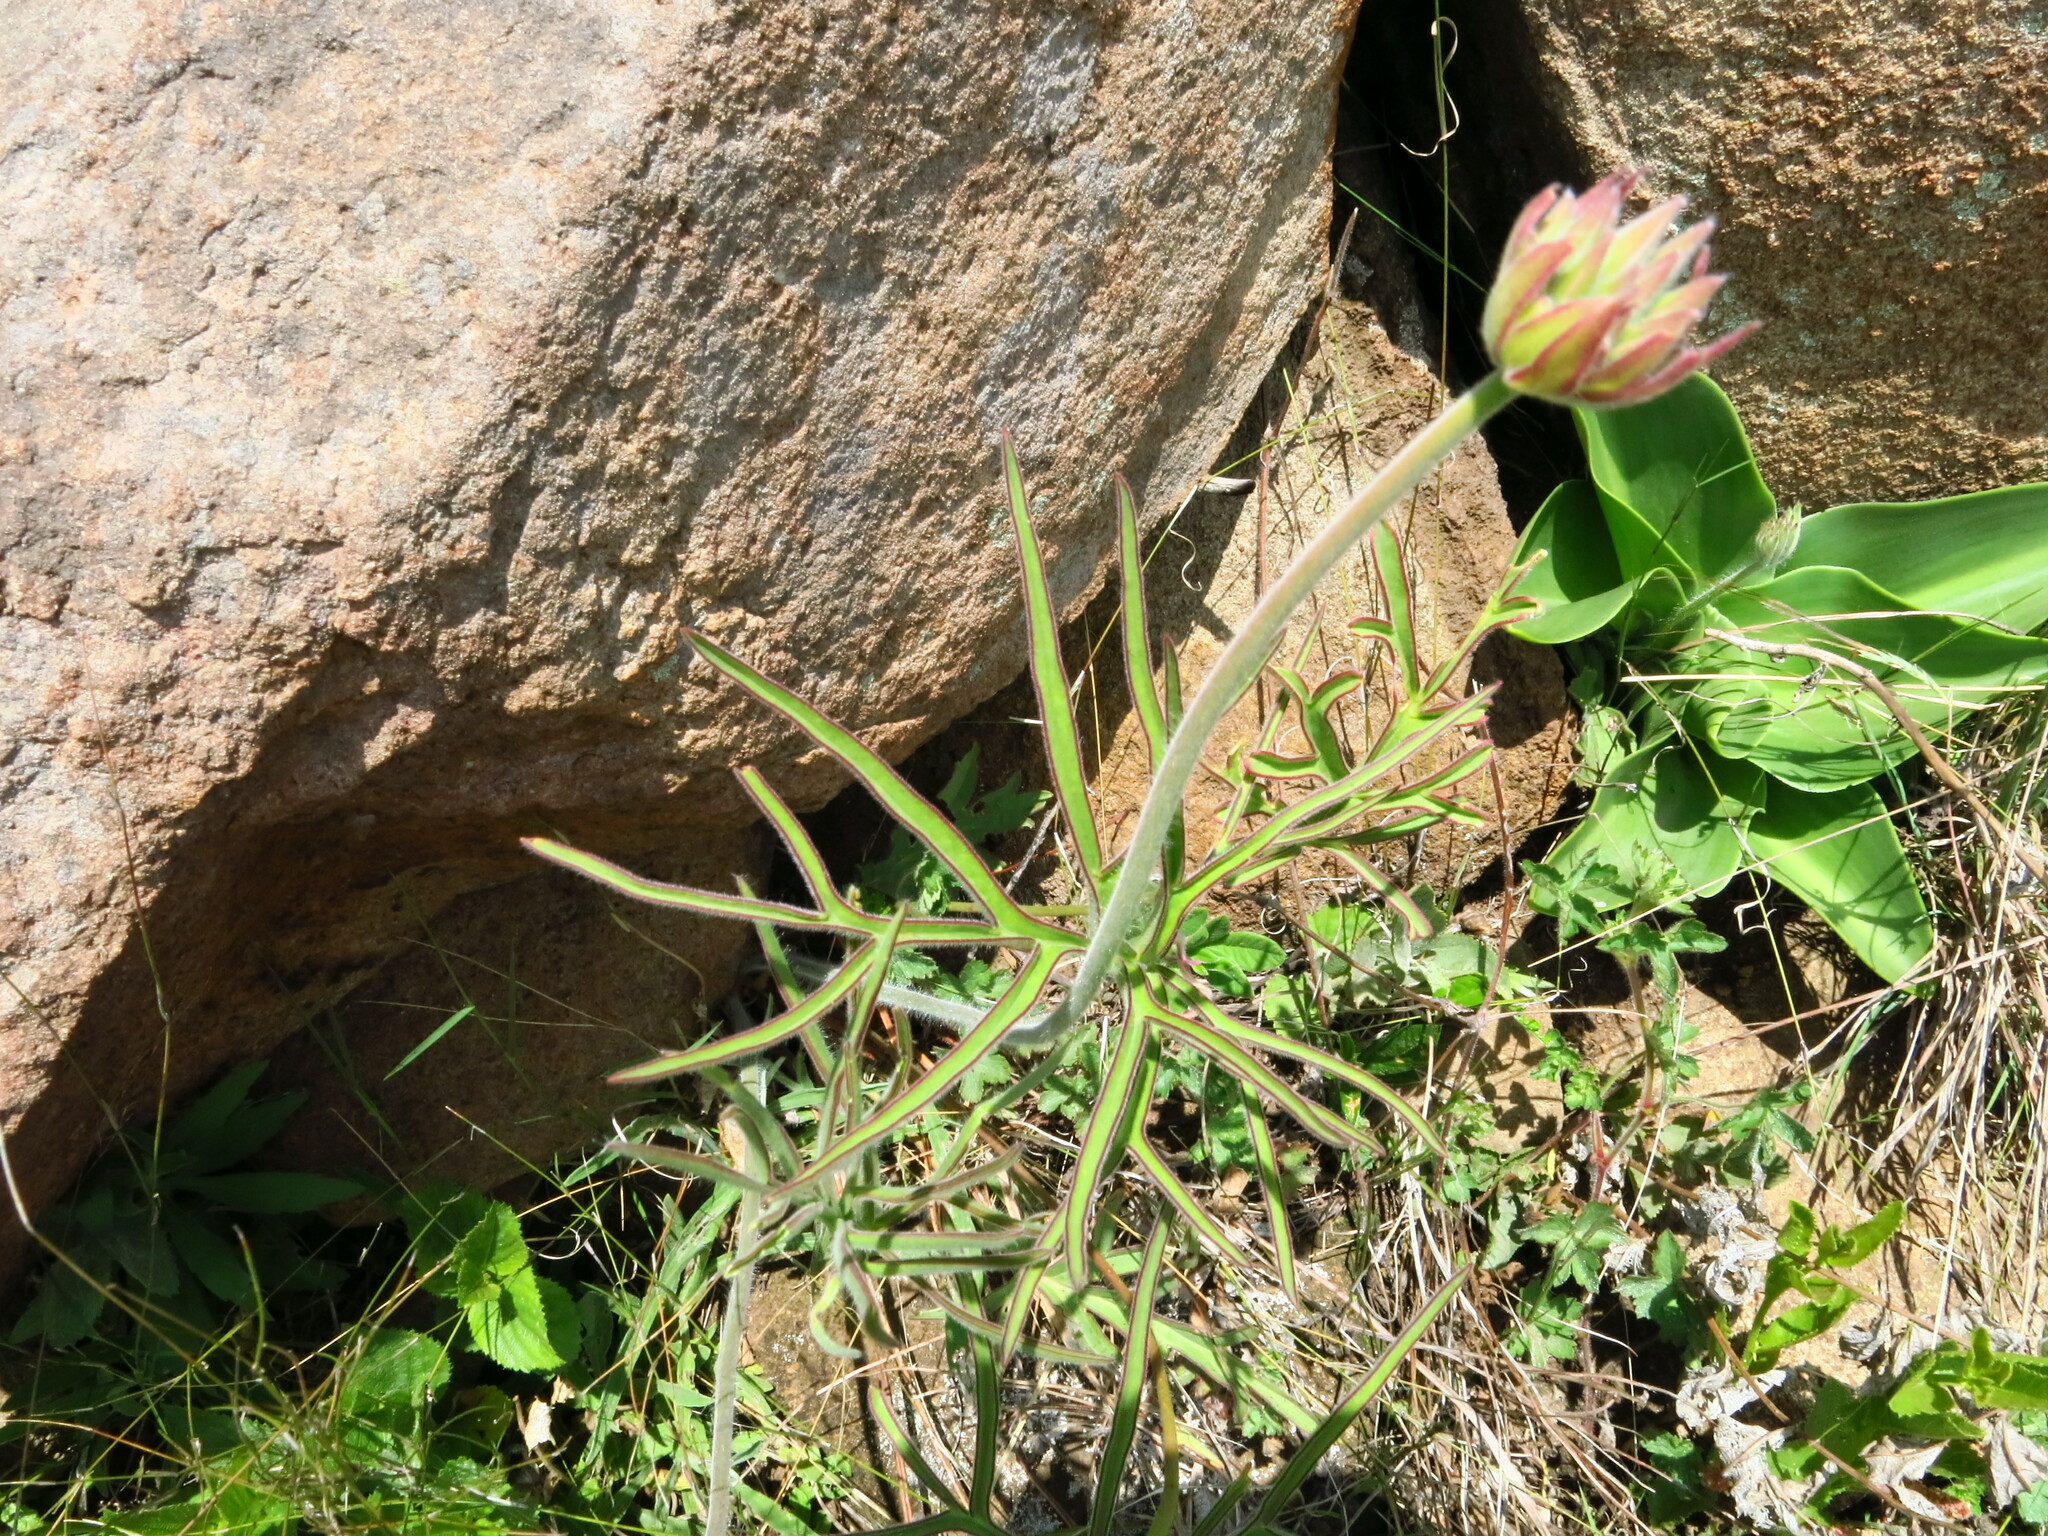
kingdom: Plantae
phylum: Tracheophyta
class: Magnoliopsida
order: Geraniales
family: Geraniaceae
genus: Pelargonium
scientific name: Pelargonium luridum
